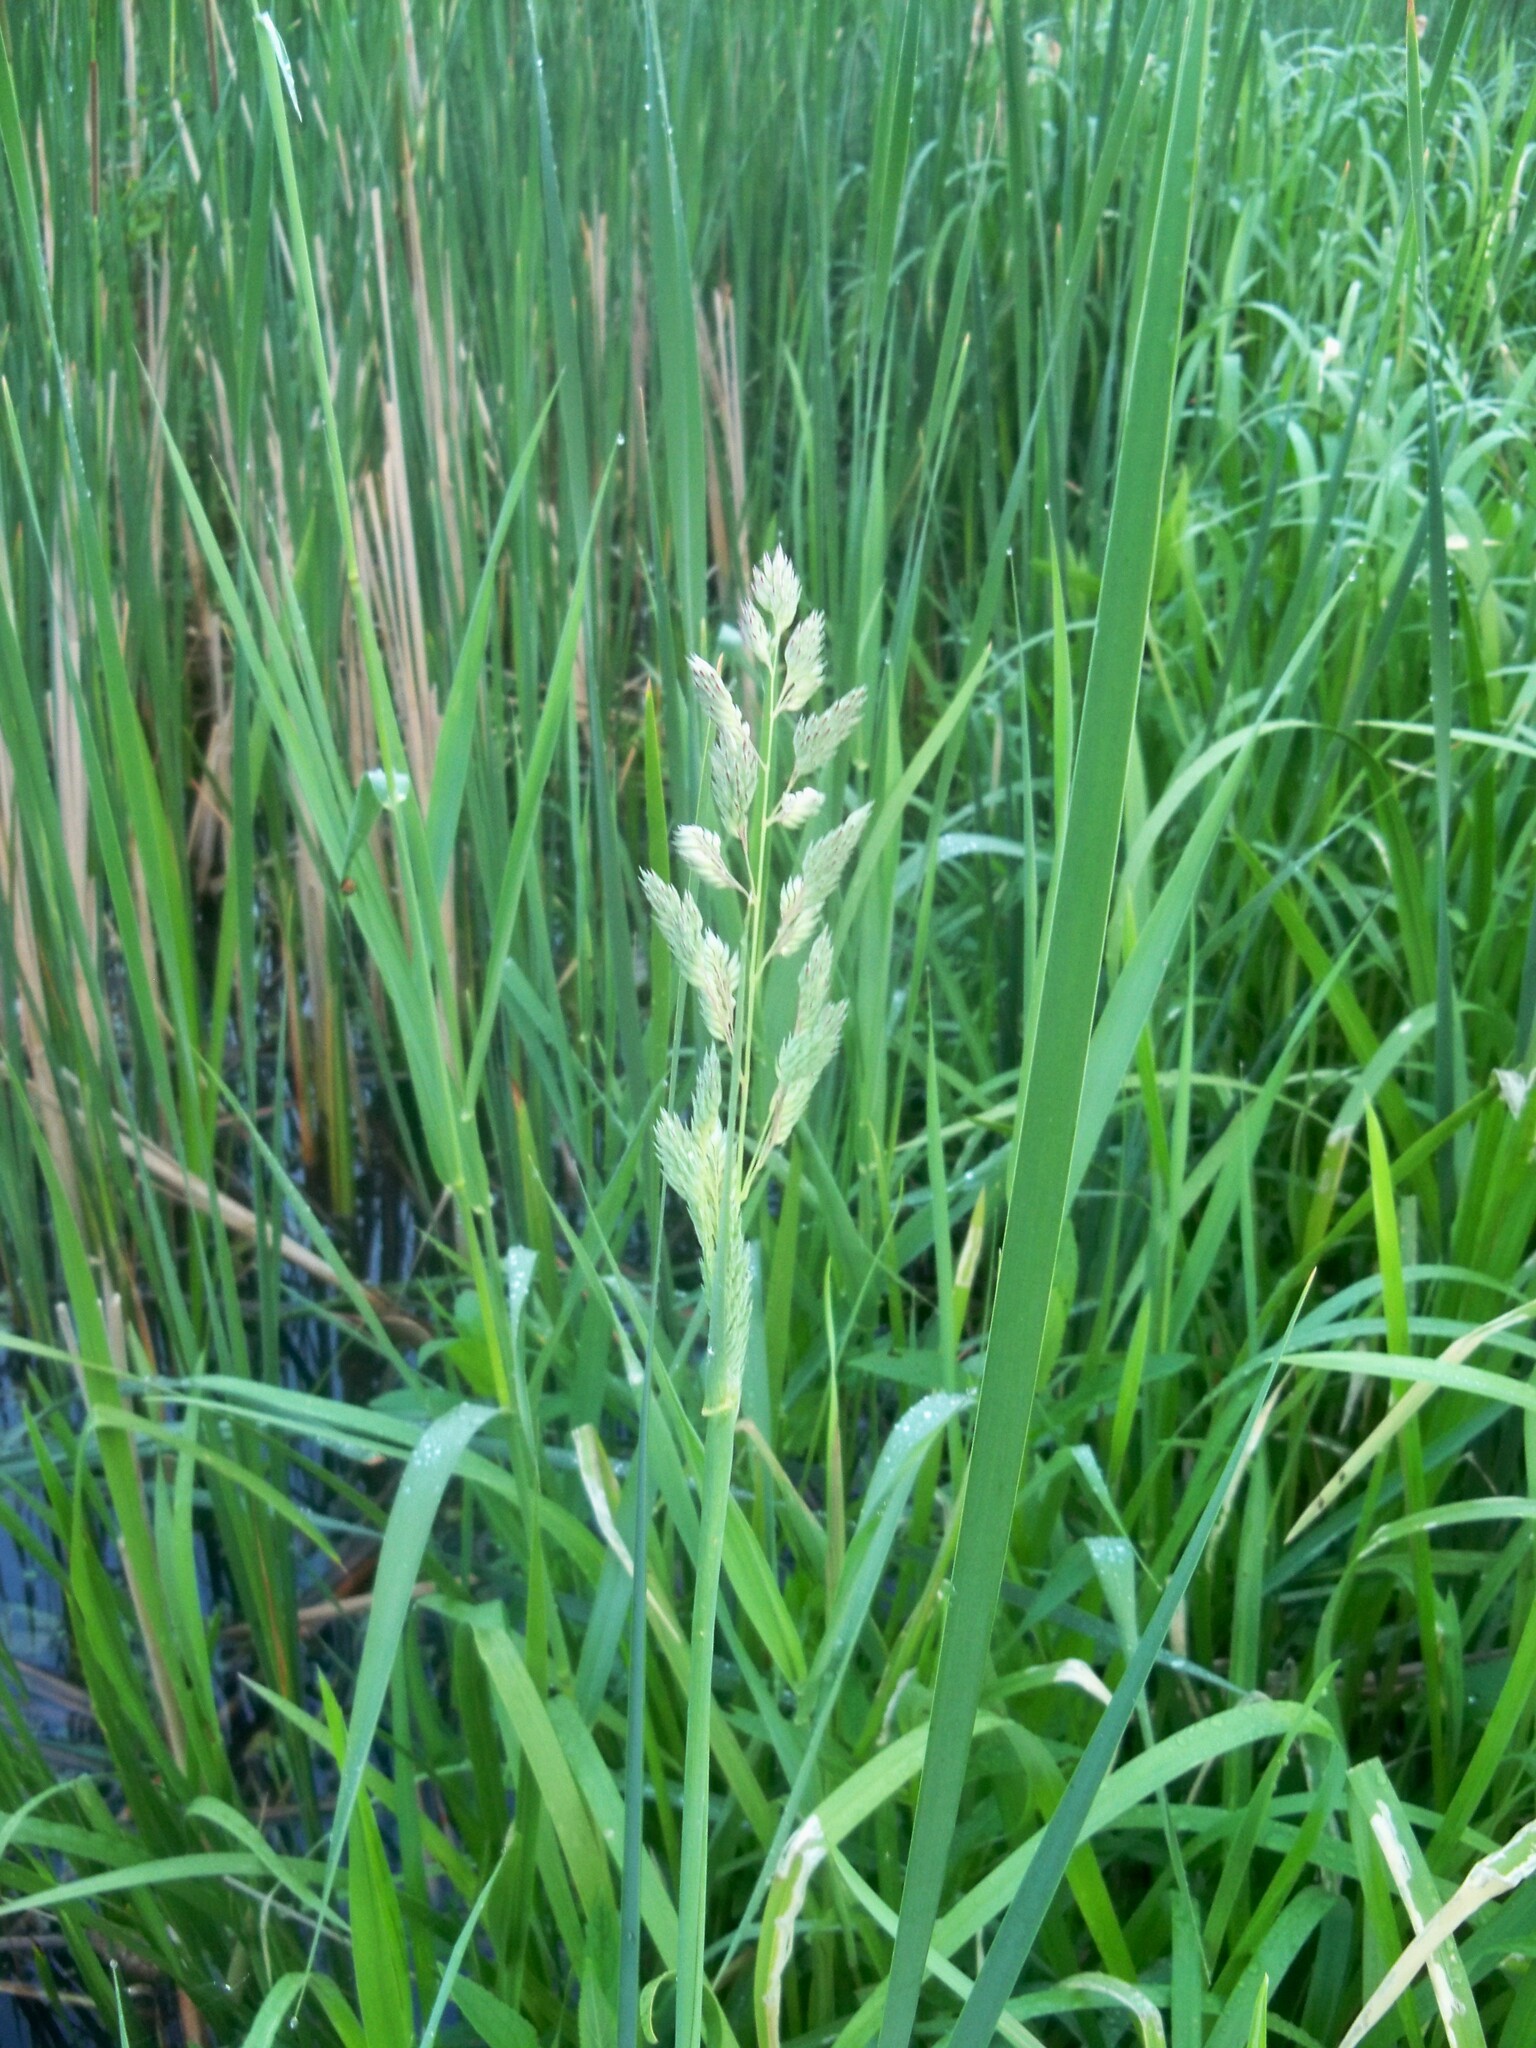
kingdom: Plantae
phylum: Tracheophyta
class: Liliopsida
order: Poales
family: Poaceae
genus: Phalaris
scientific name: Phalaris arundinacea
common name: Reed canary-grass
